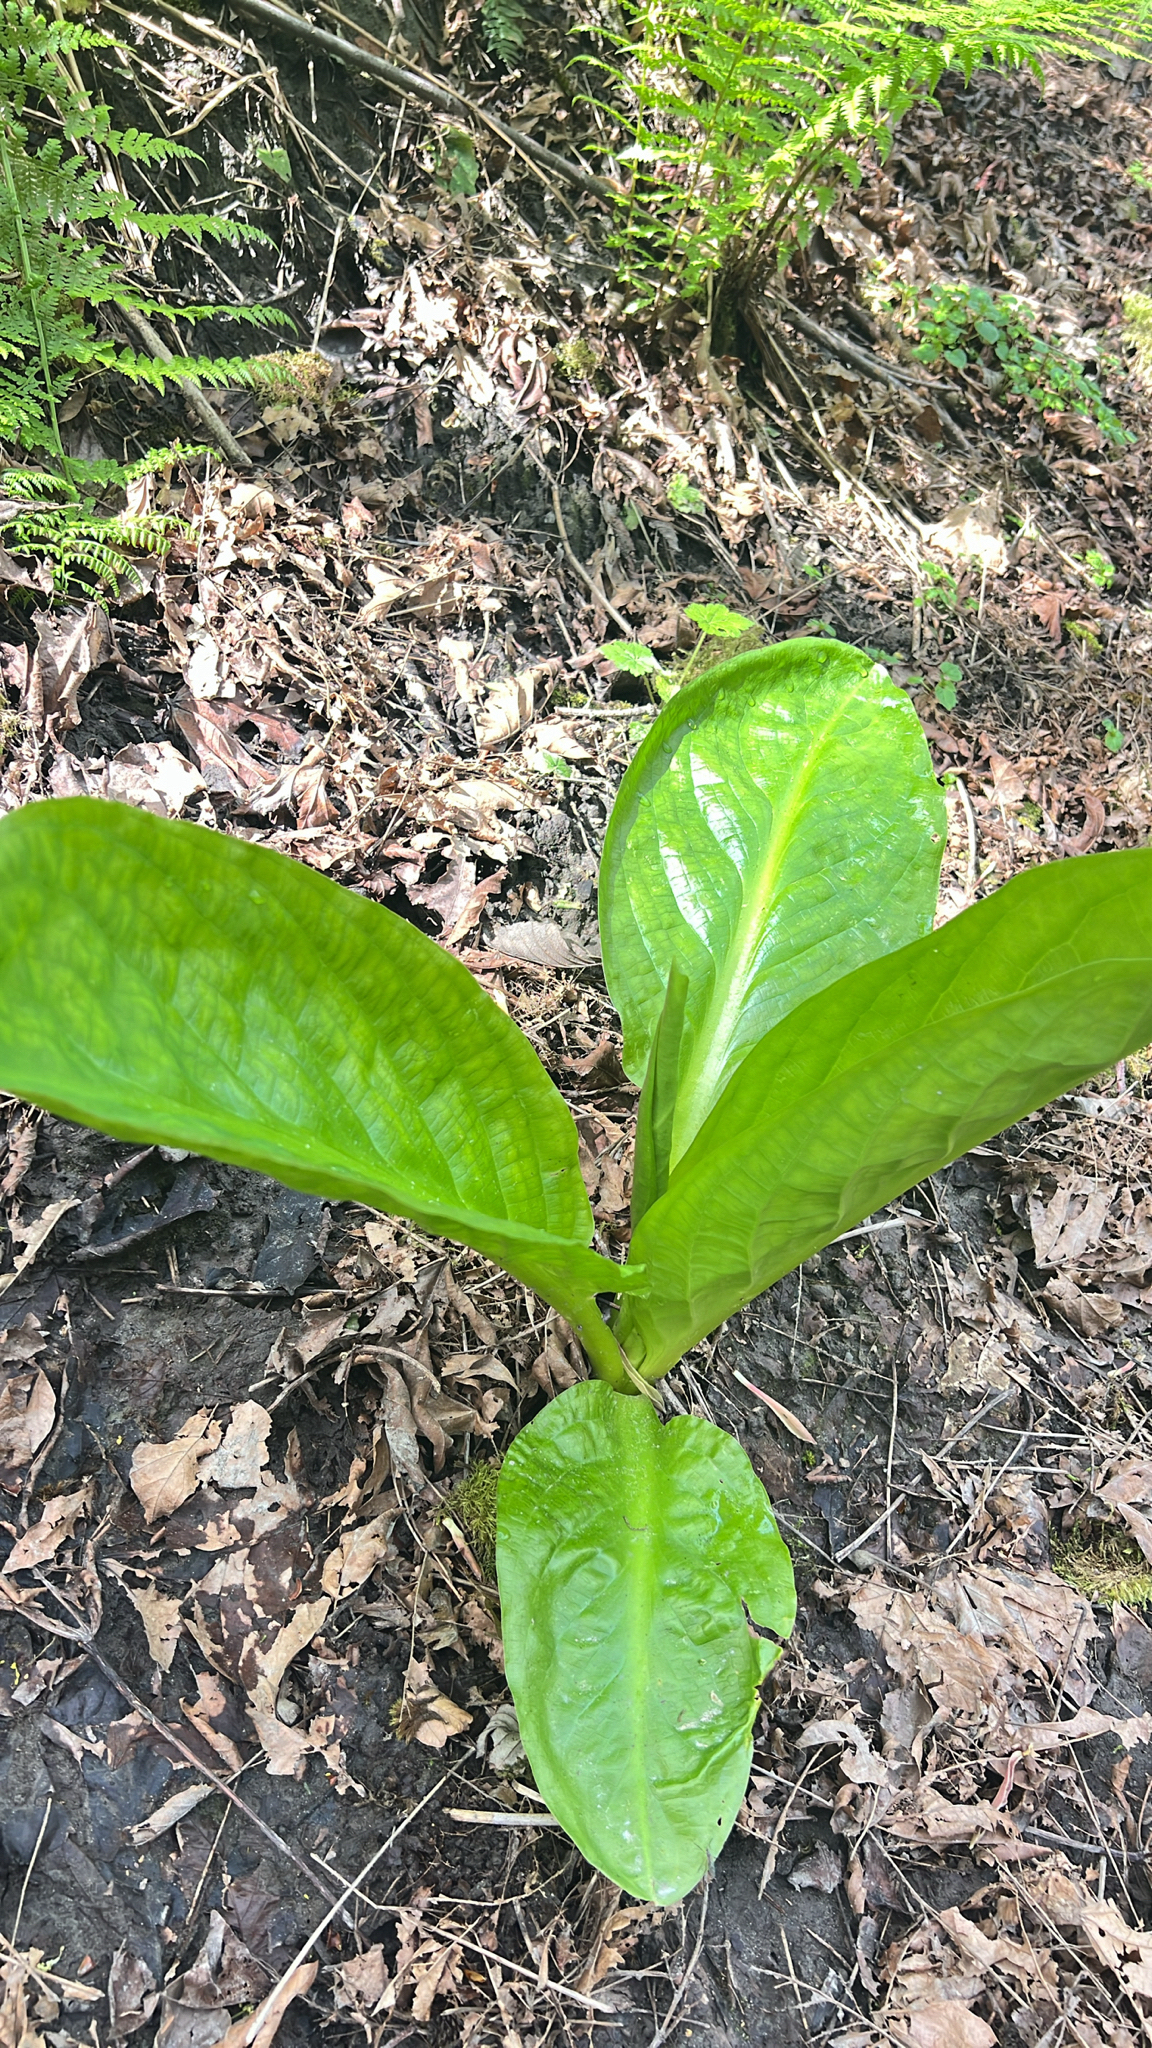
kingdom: Plantae
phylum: Tracheophyta
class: Liliopsida
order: Alismatales
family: Araceae
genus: Lysichiton
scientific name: Lysichiton americanus
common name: American skunk cabbage
